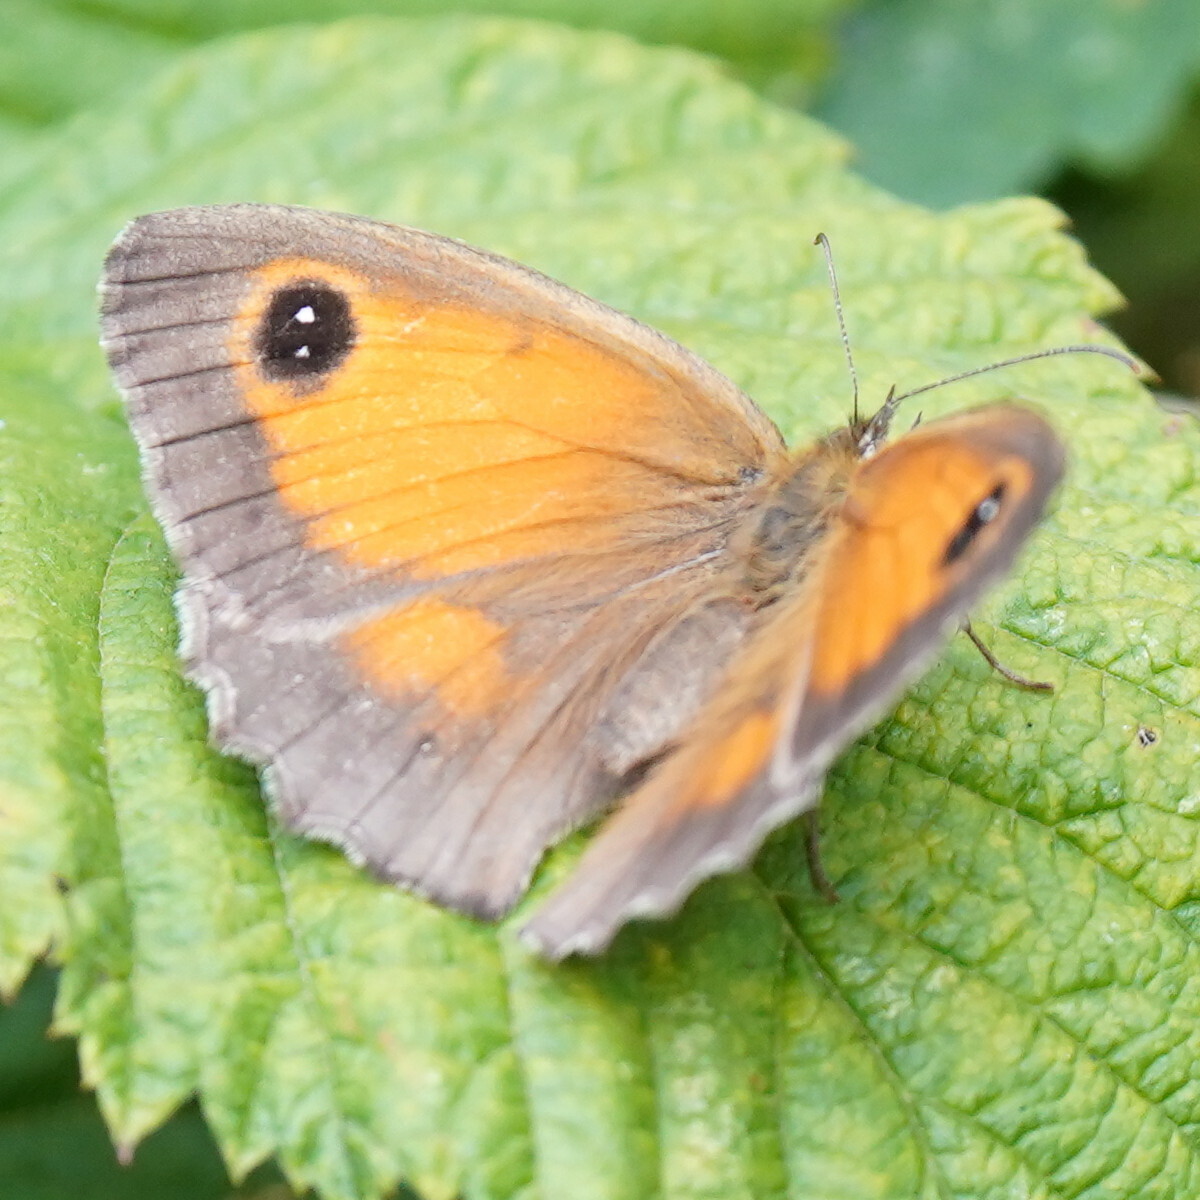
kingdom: Animalia
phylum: Arthropoda
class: Insecta
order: Lepidoptera
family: Nymphalidae
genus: Pyronia
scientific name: Pyronia tithonus
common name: Gatekeeper
